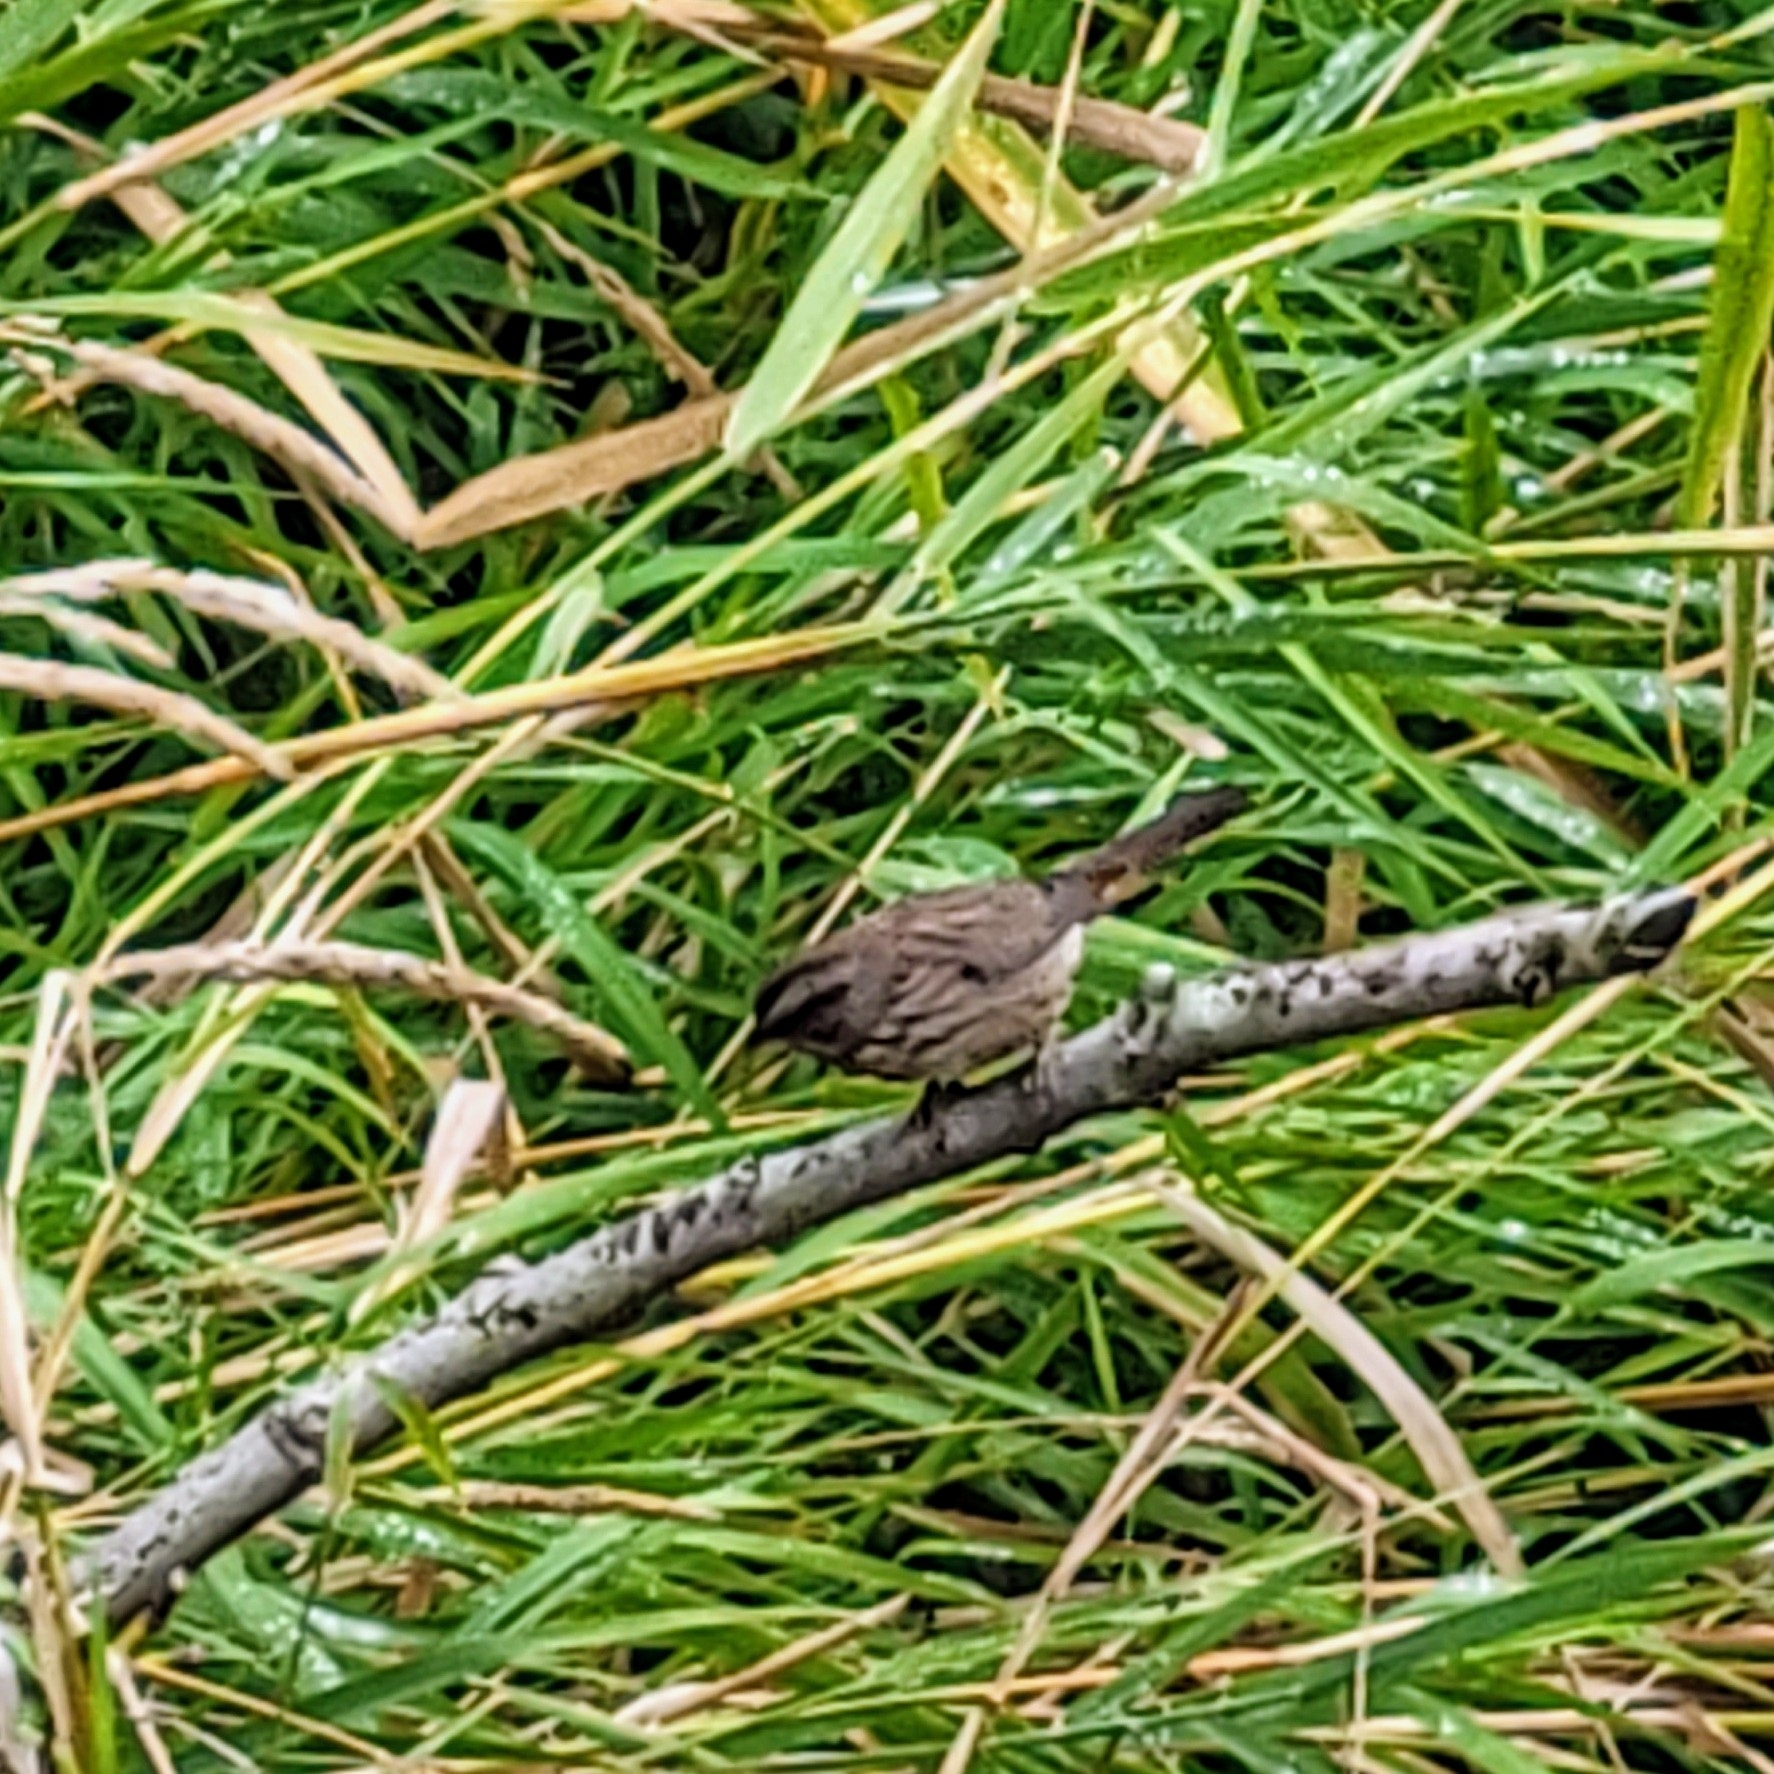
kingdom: Animalia
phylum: Chordata
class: Aves
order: Passeriformes
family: Passerellidae
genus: Melospiza
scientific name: Melospiza melodia
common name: Song sparrow
